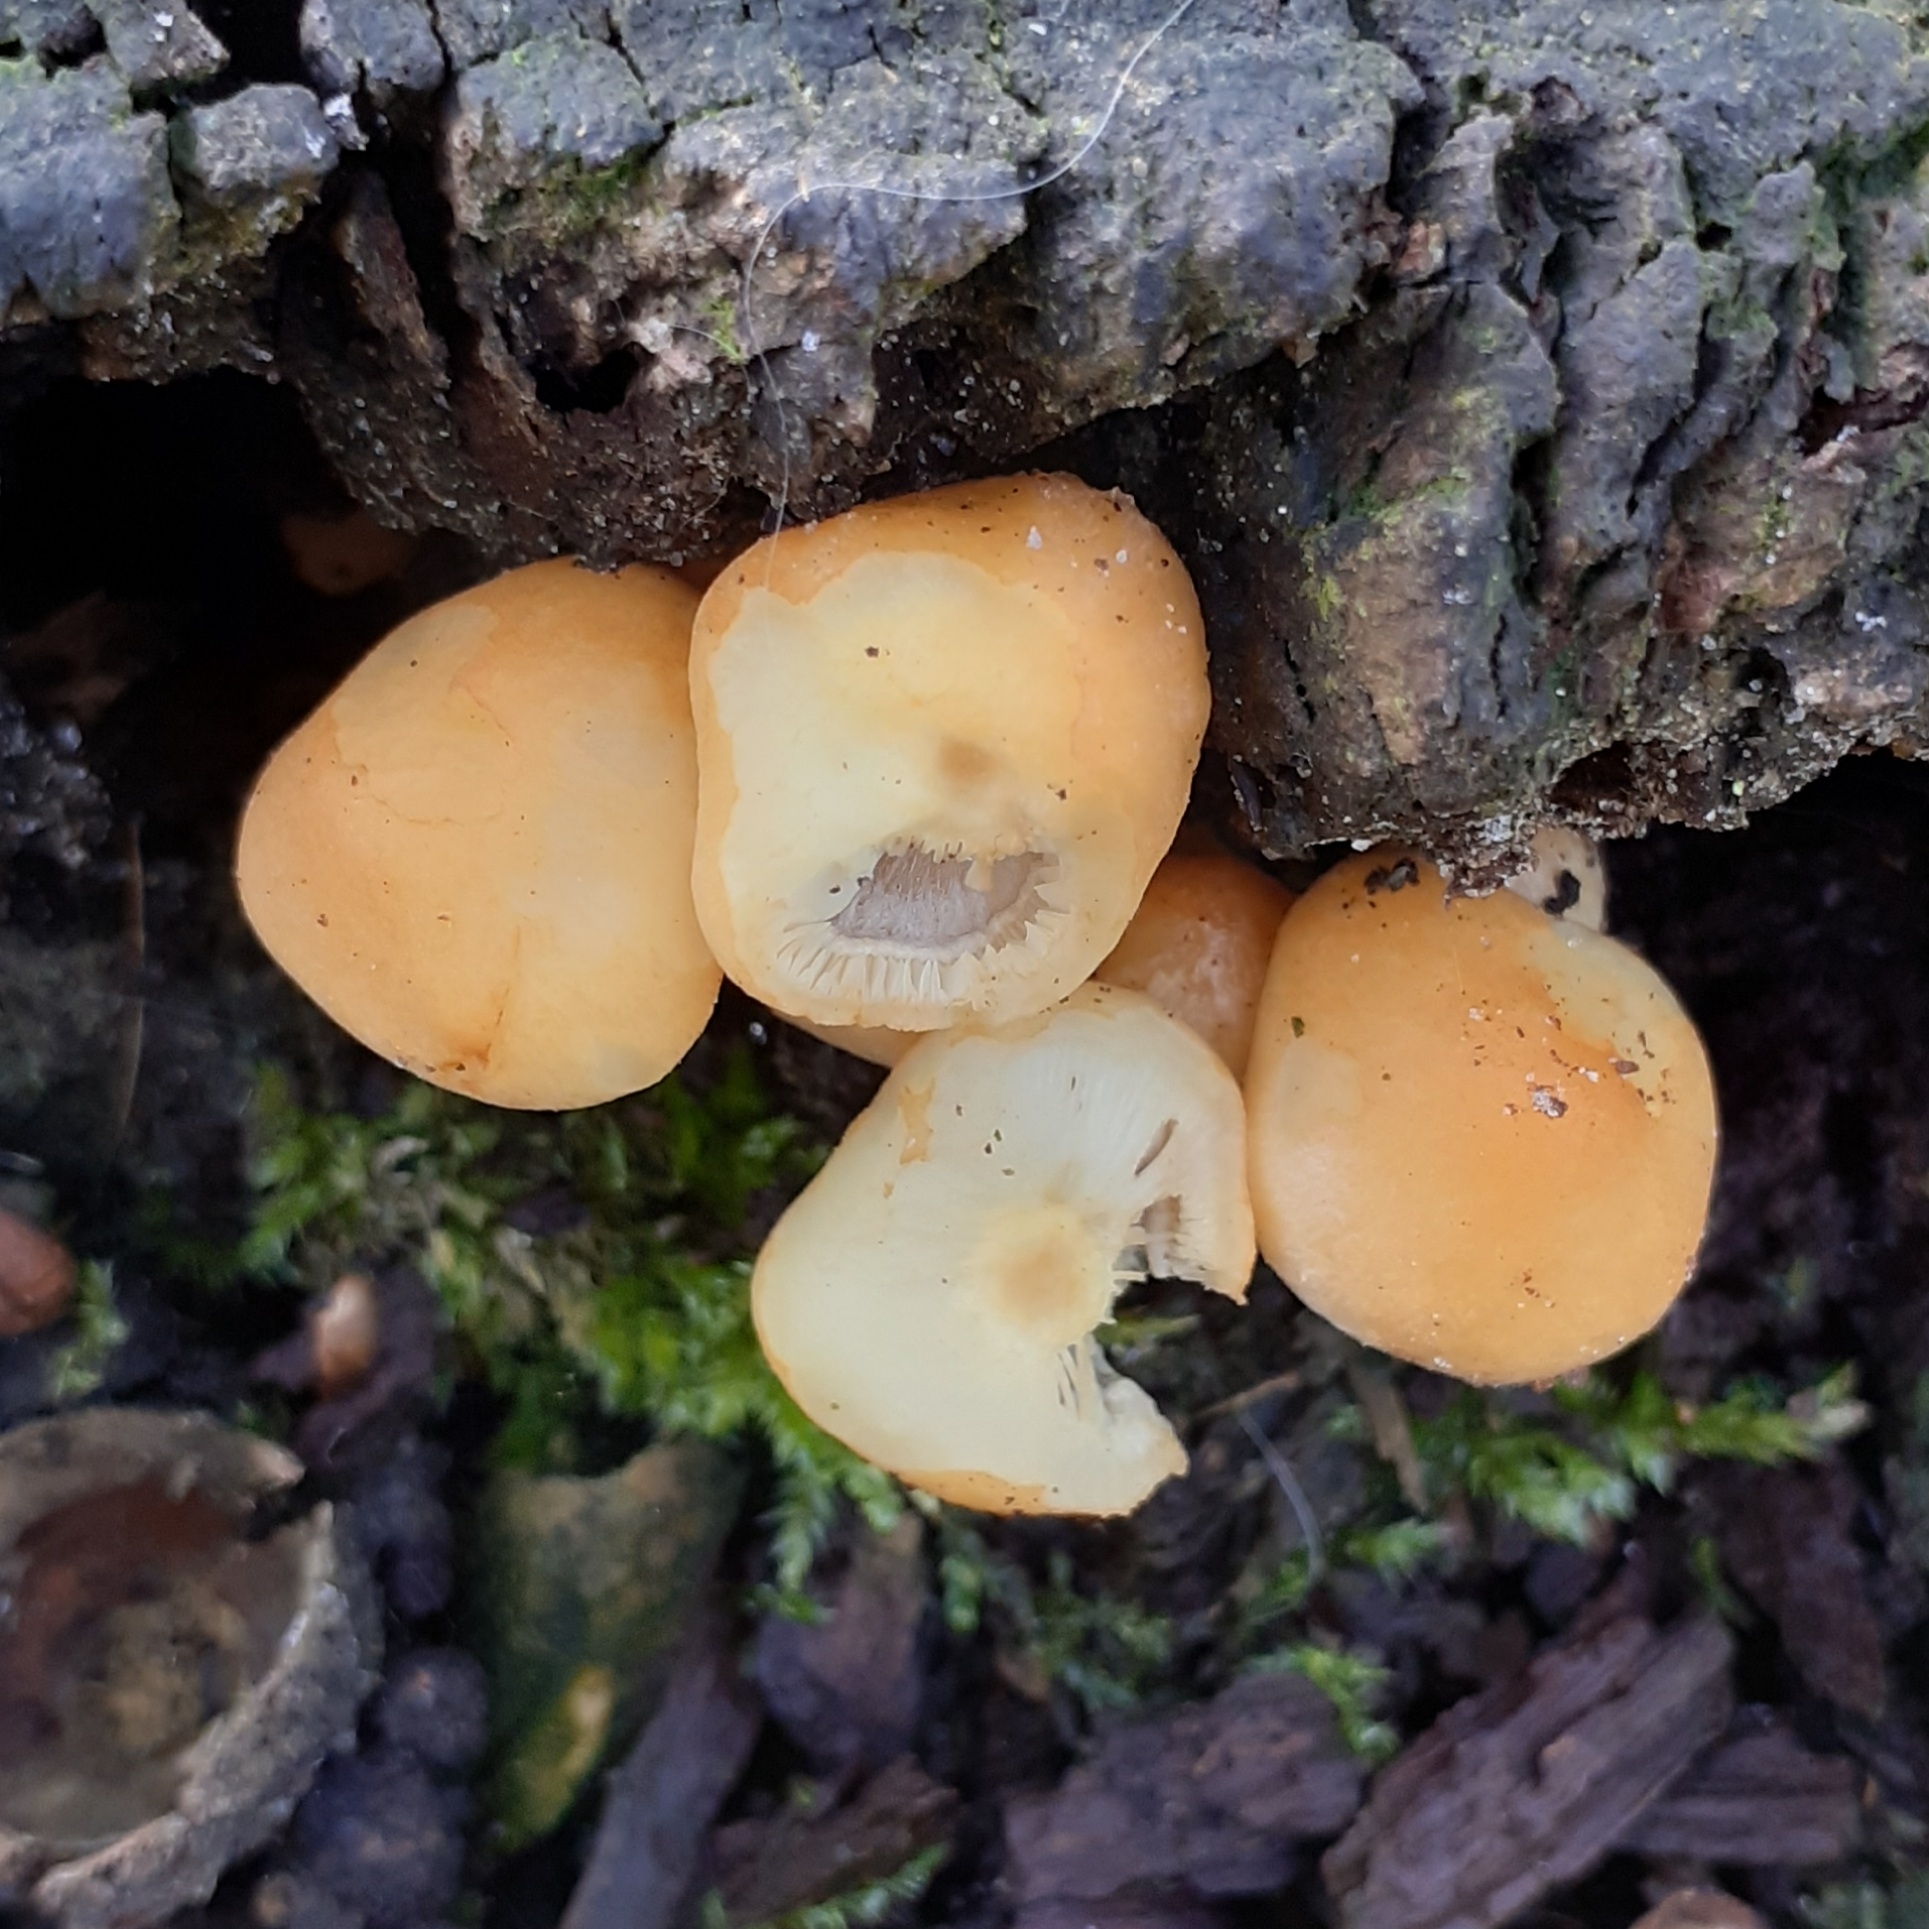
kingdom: Fungi
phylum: Basidiomycota
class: Agaricomycetes
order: Agaricales
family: Strophariaceae
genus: Hypholoma
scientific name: Hypholoma fasciculare
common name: Sulphur tuft
